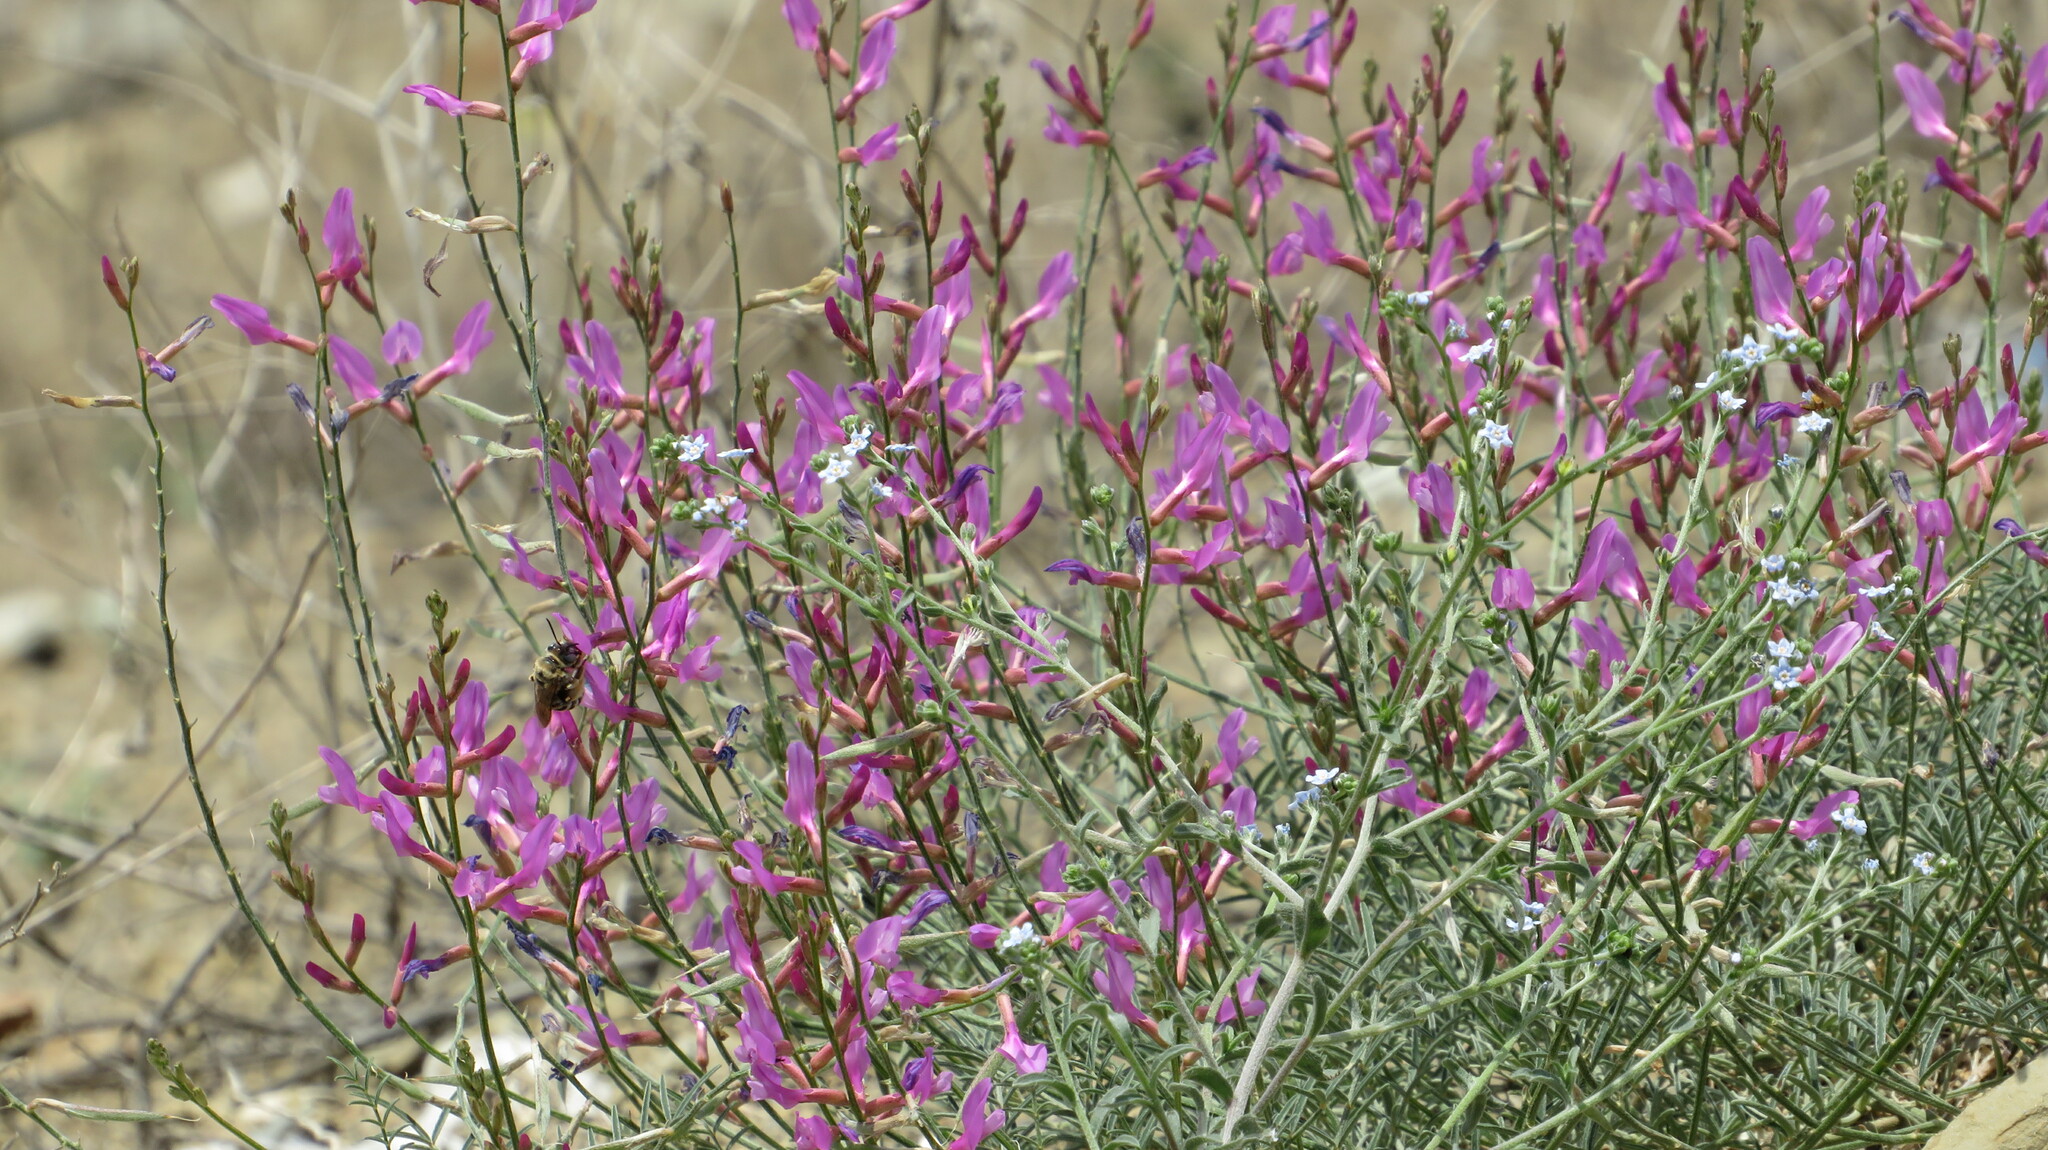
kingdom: Plantae
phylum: Tracheophyta
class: Magnoliopsida
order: Fabales
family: Fabaceae
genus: Astragalus
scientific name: Astragalus varius
